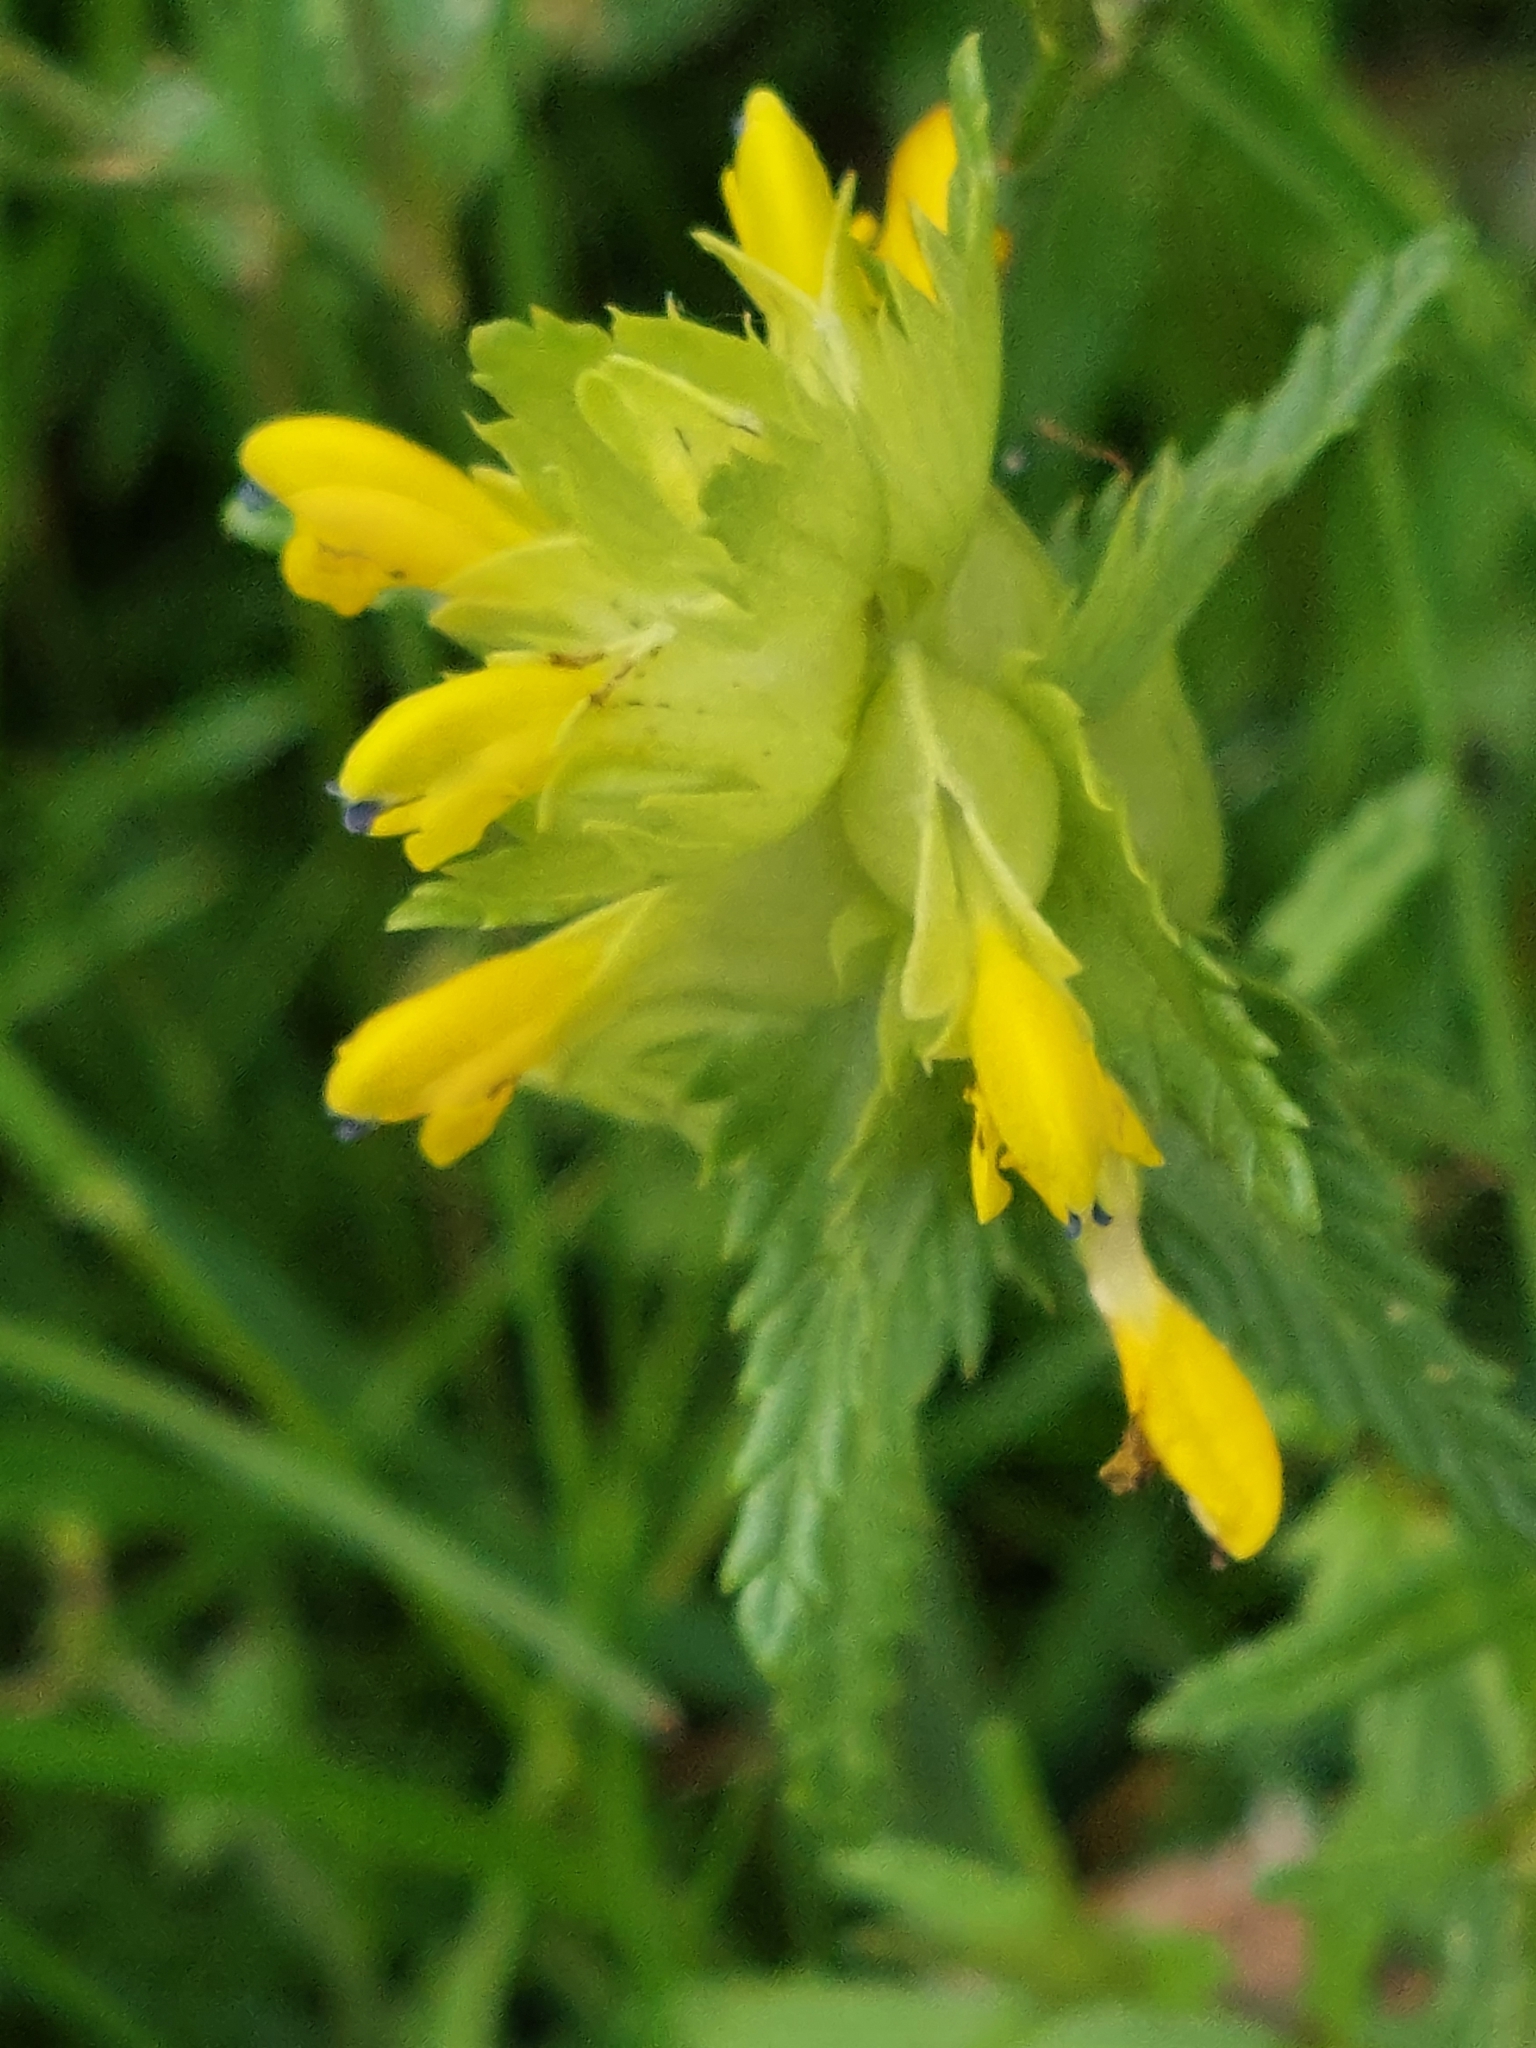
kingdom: Plantae
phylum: Tracheophyta
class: Magnoliopsida
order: Lamiales
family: Orobanchaceae
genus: Rhinanthus
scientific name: Rhinanthus minor
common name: Yellow-rattle
